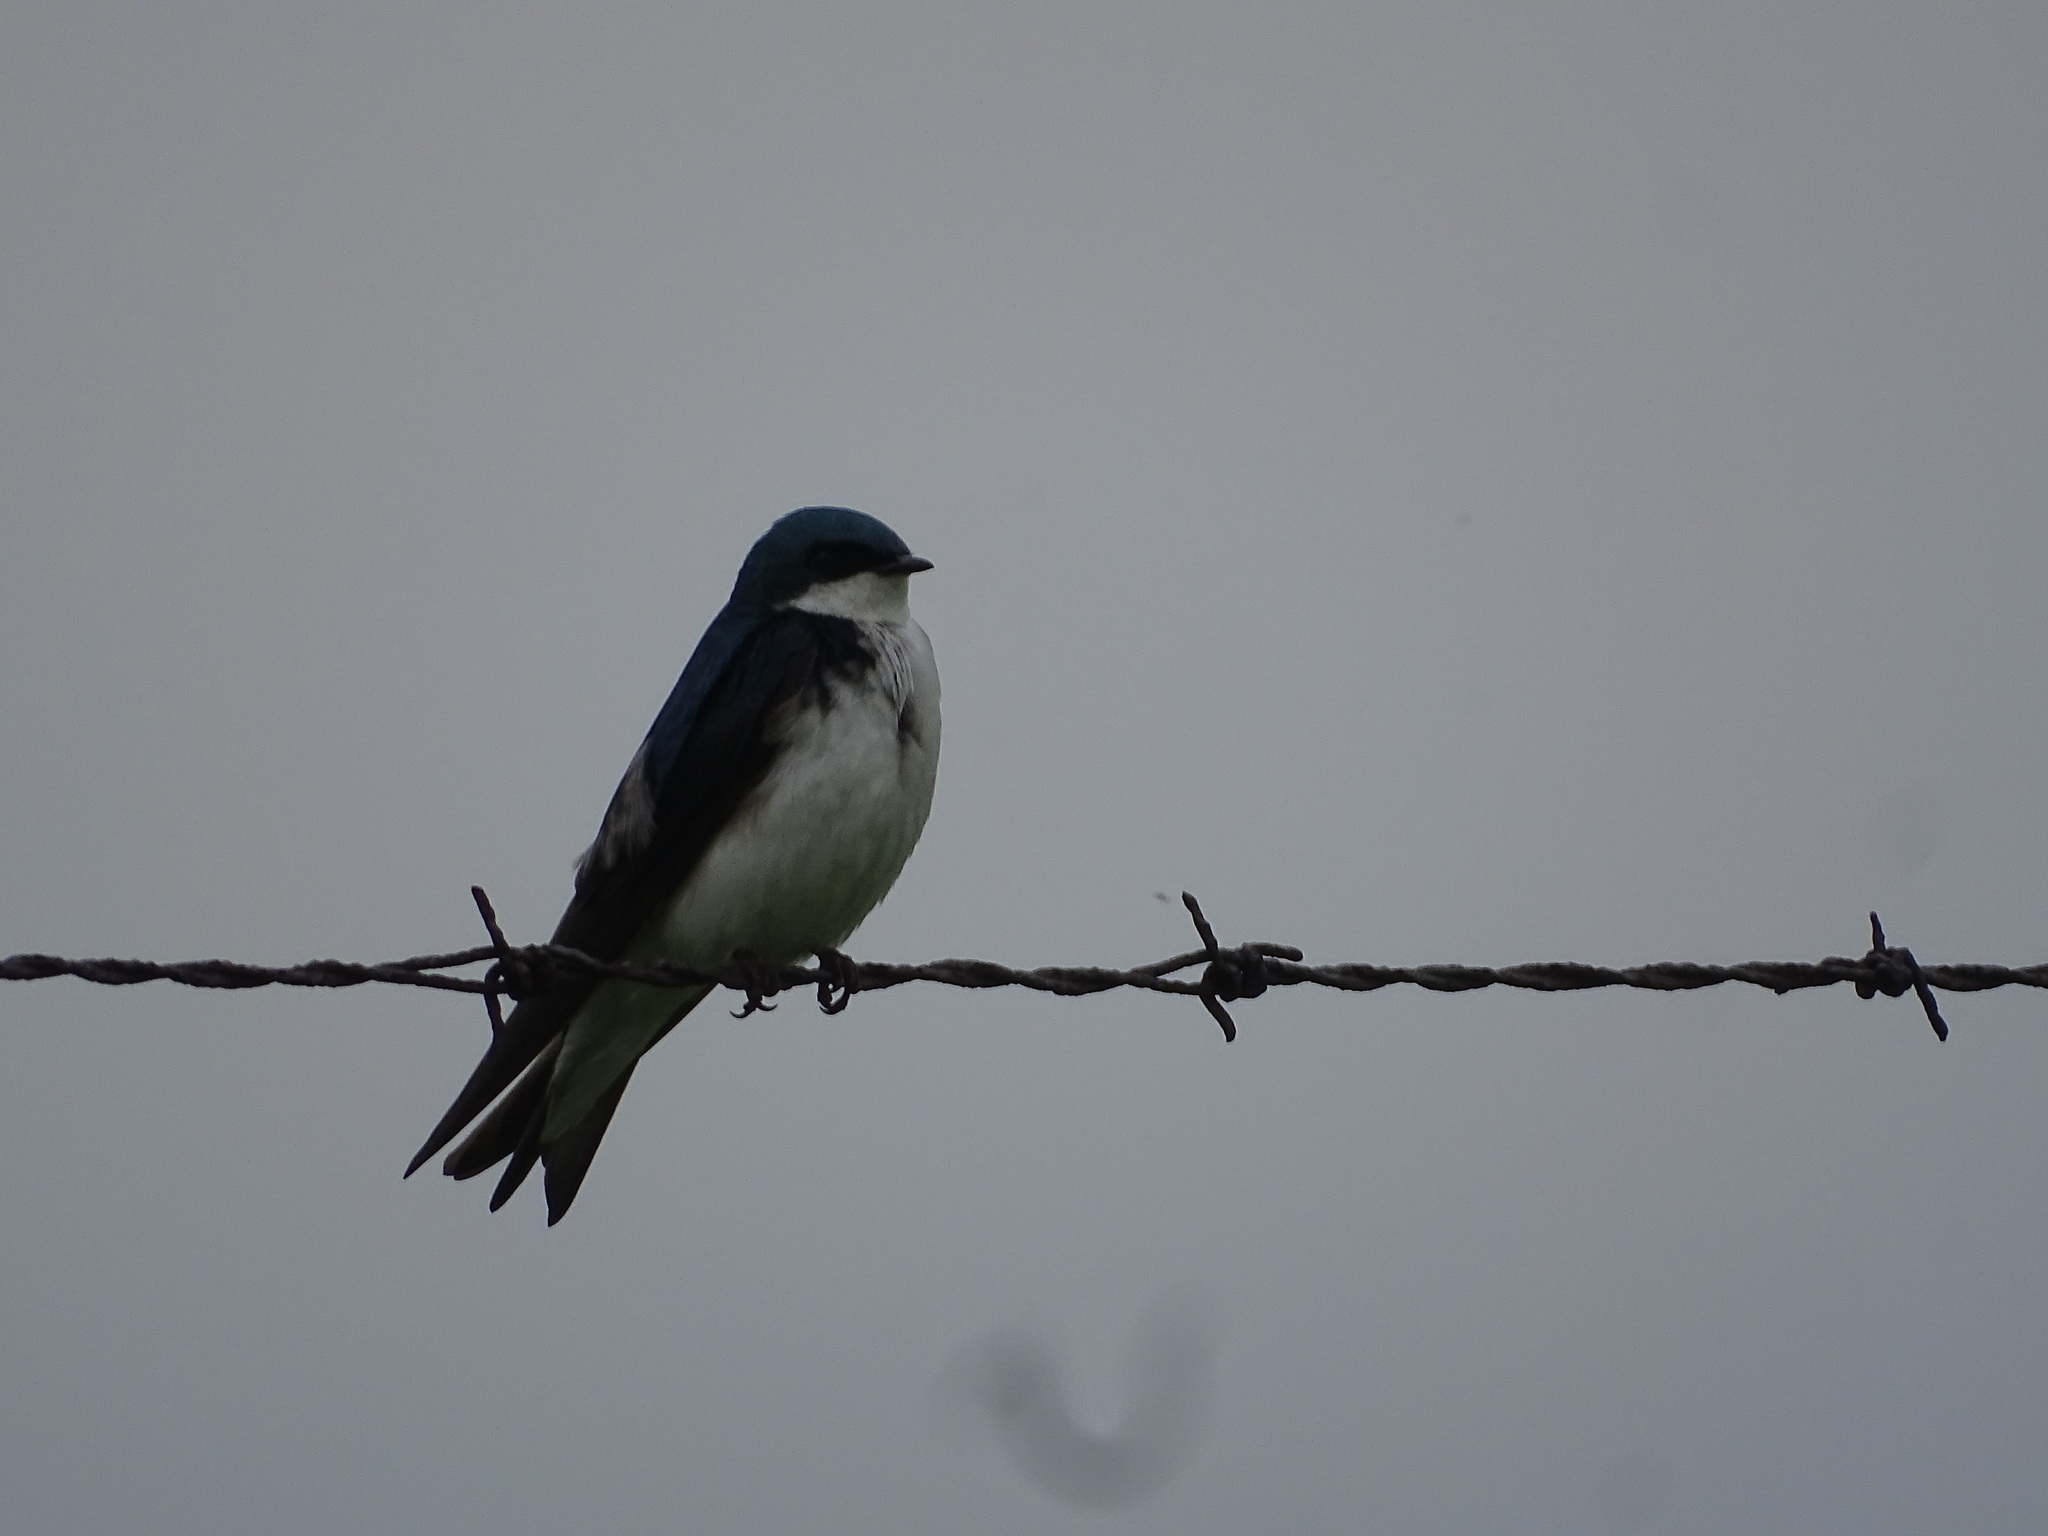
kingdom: Animalia
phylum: Chordata
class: Aves
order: Passeriformes
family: Hirundinidae
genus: Tachycineta
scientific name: Tachycineta bicolor
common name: Tree swallow
